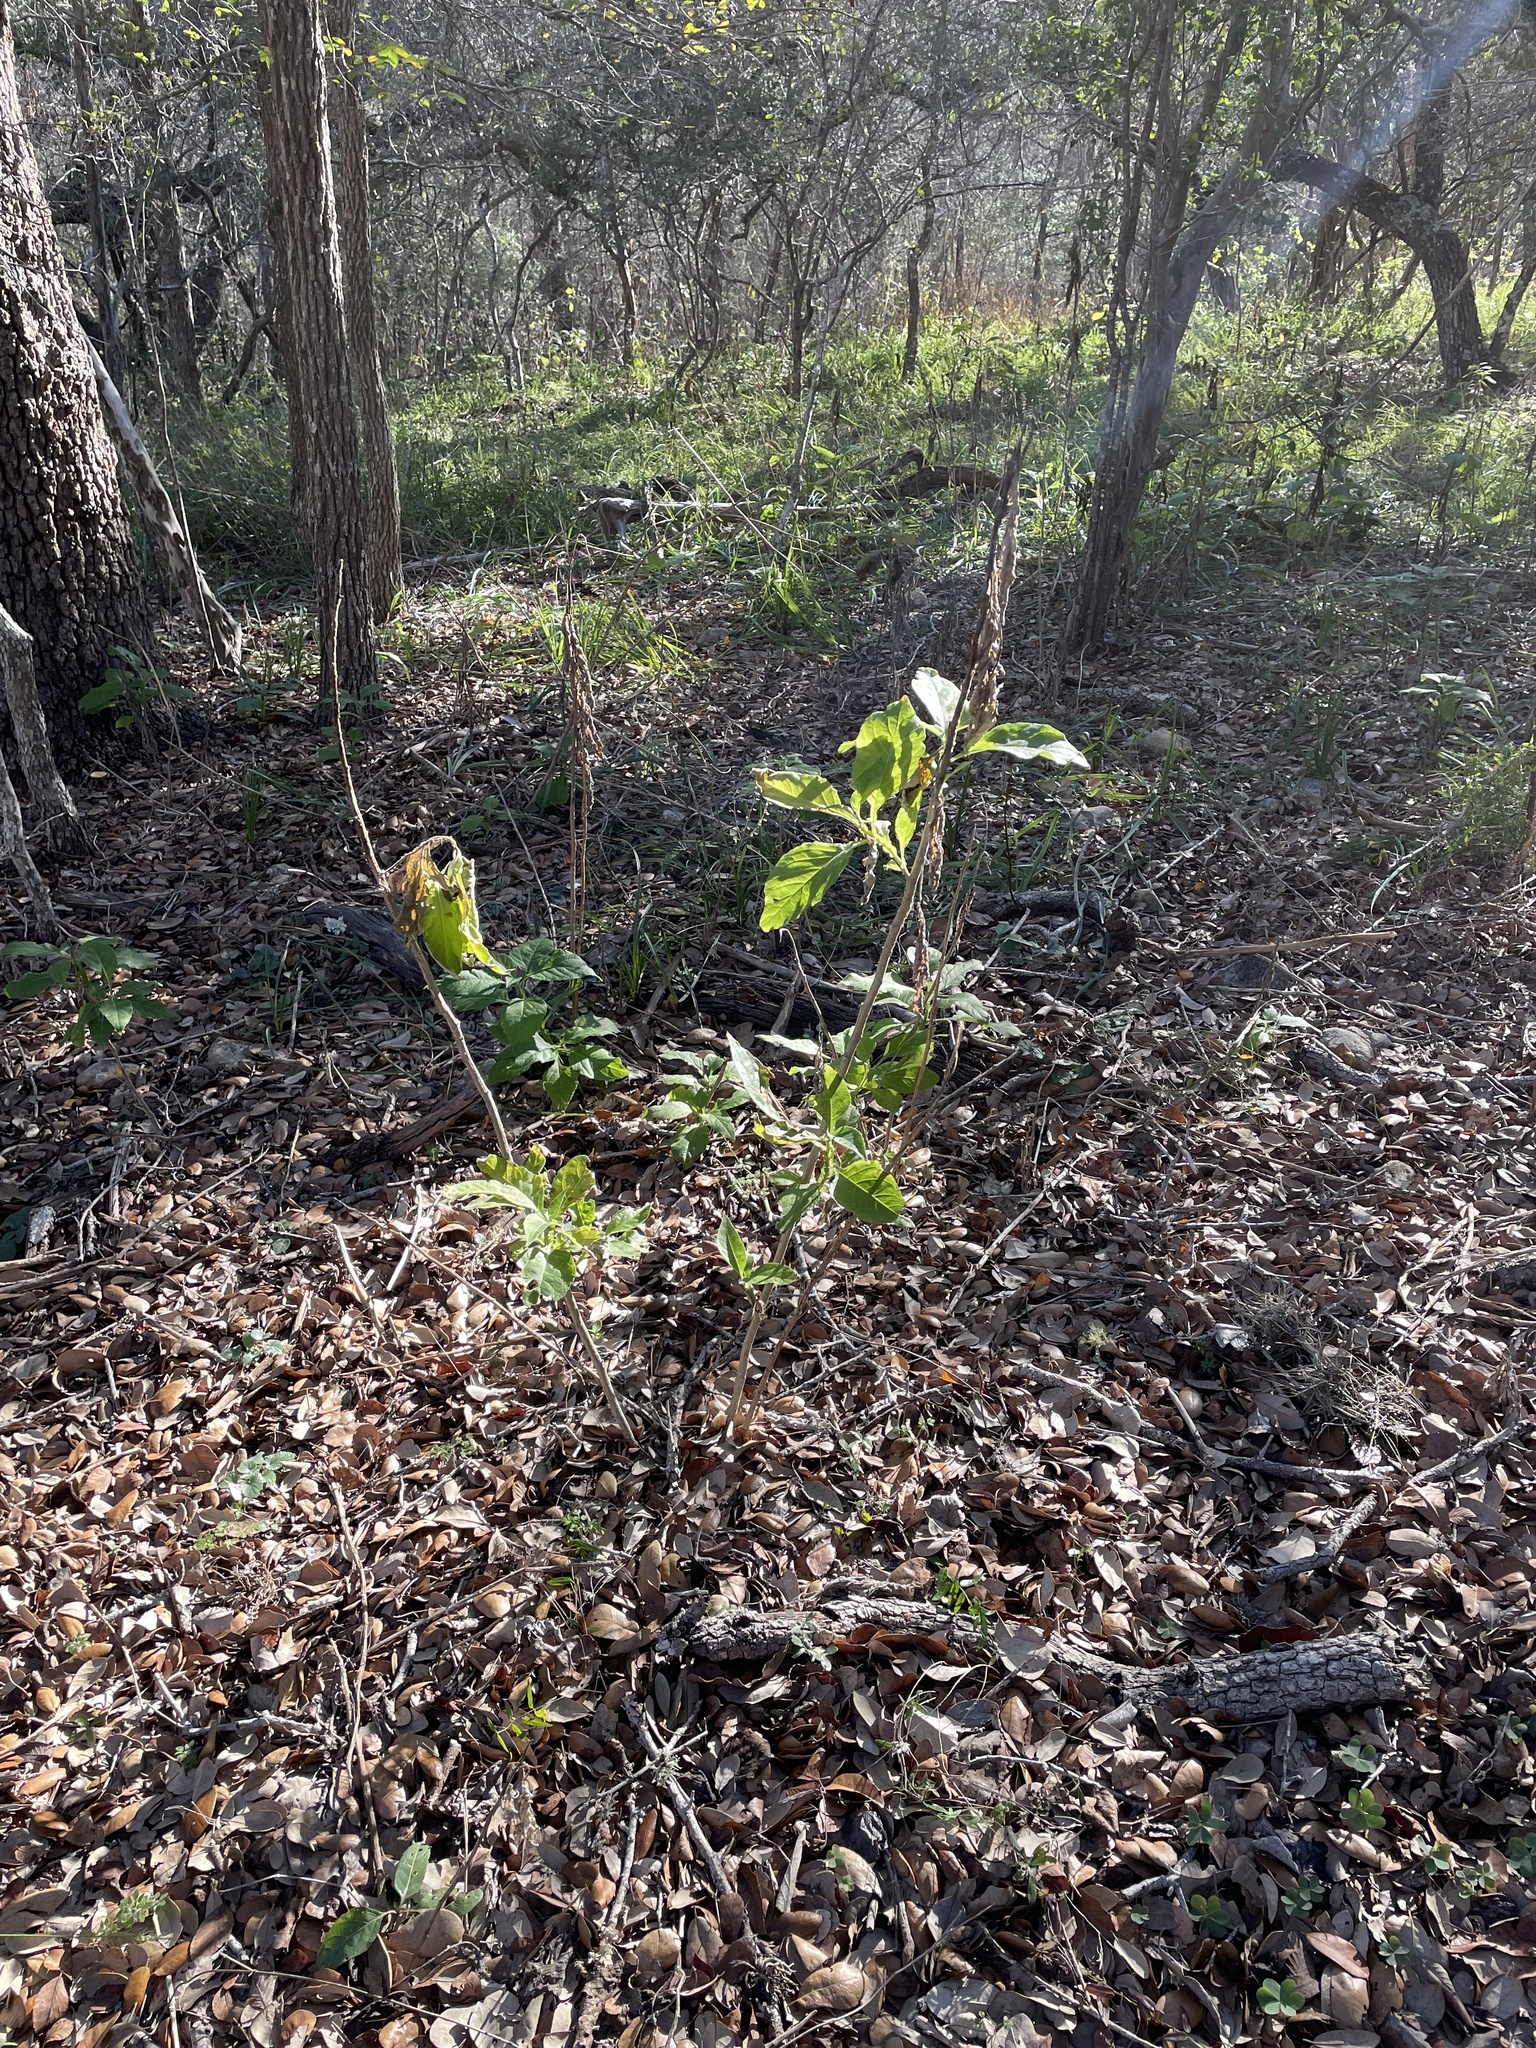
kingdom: Plantae
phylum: Tracheophyta
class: Magnoliopsida
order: Asterales
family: Asteraceae
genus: Verbesina
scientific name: Verbesina virginica
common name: Frostweed
